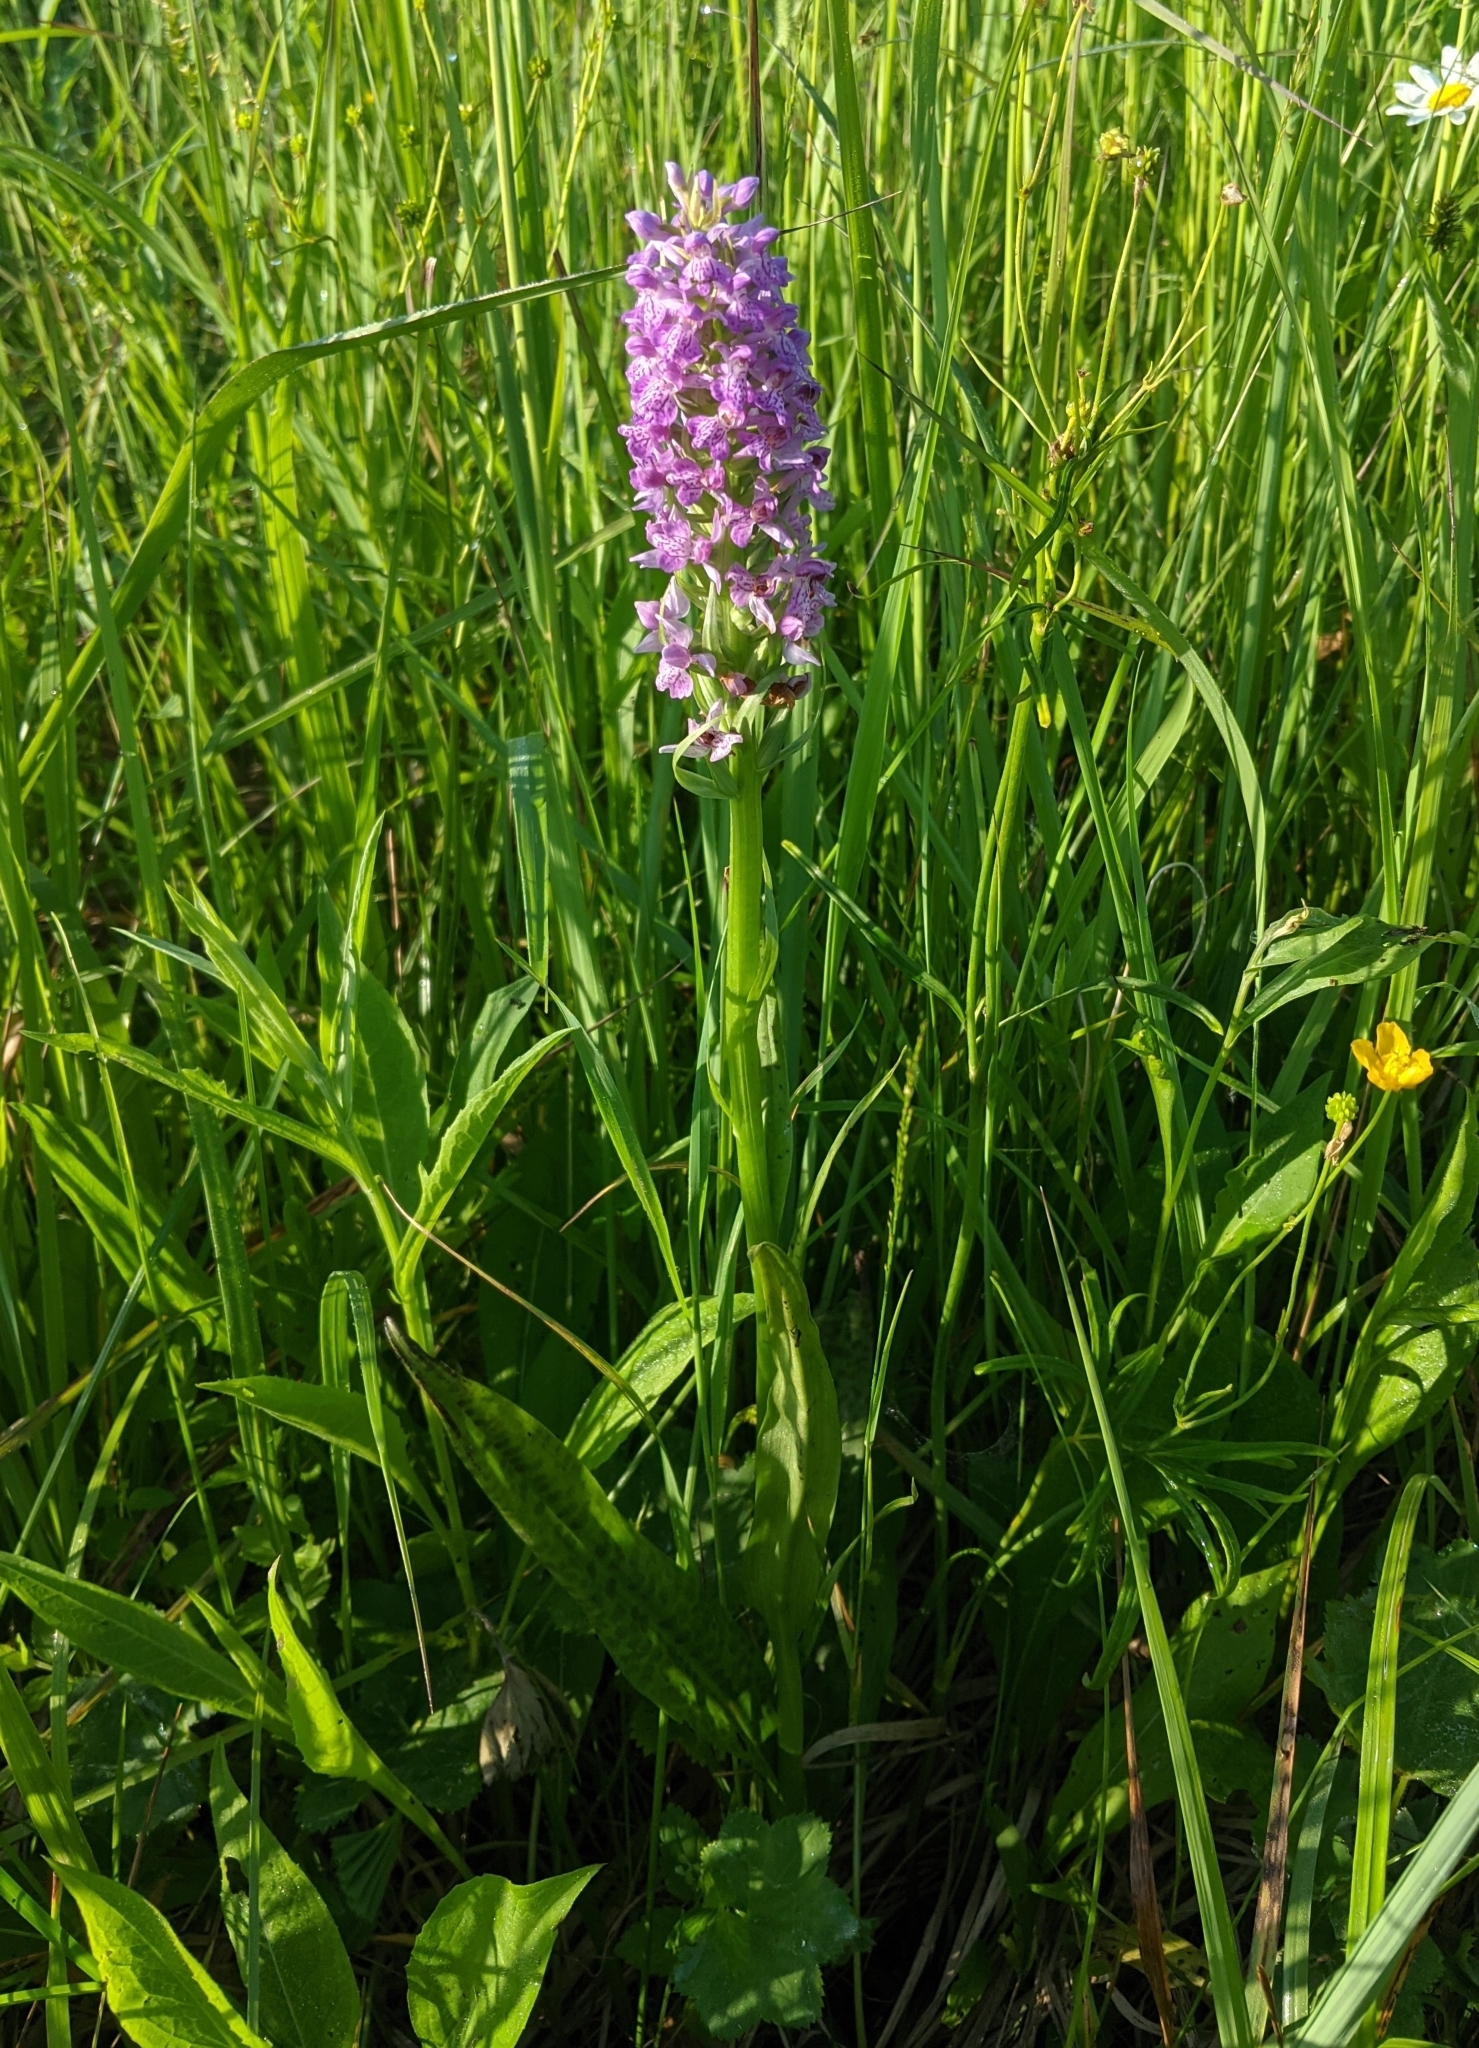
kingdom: Plantae
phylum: Tracheophyta
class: Liliopsida
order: Asparagales
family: Orchidaceae
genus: Dactylorhiza
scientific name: Dactylorhiza majalis
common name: Marsh orchid
